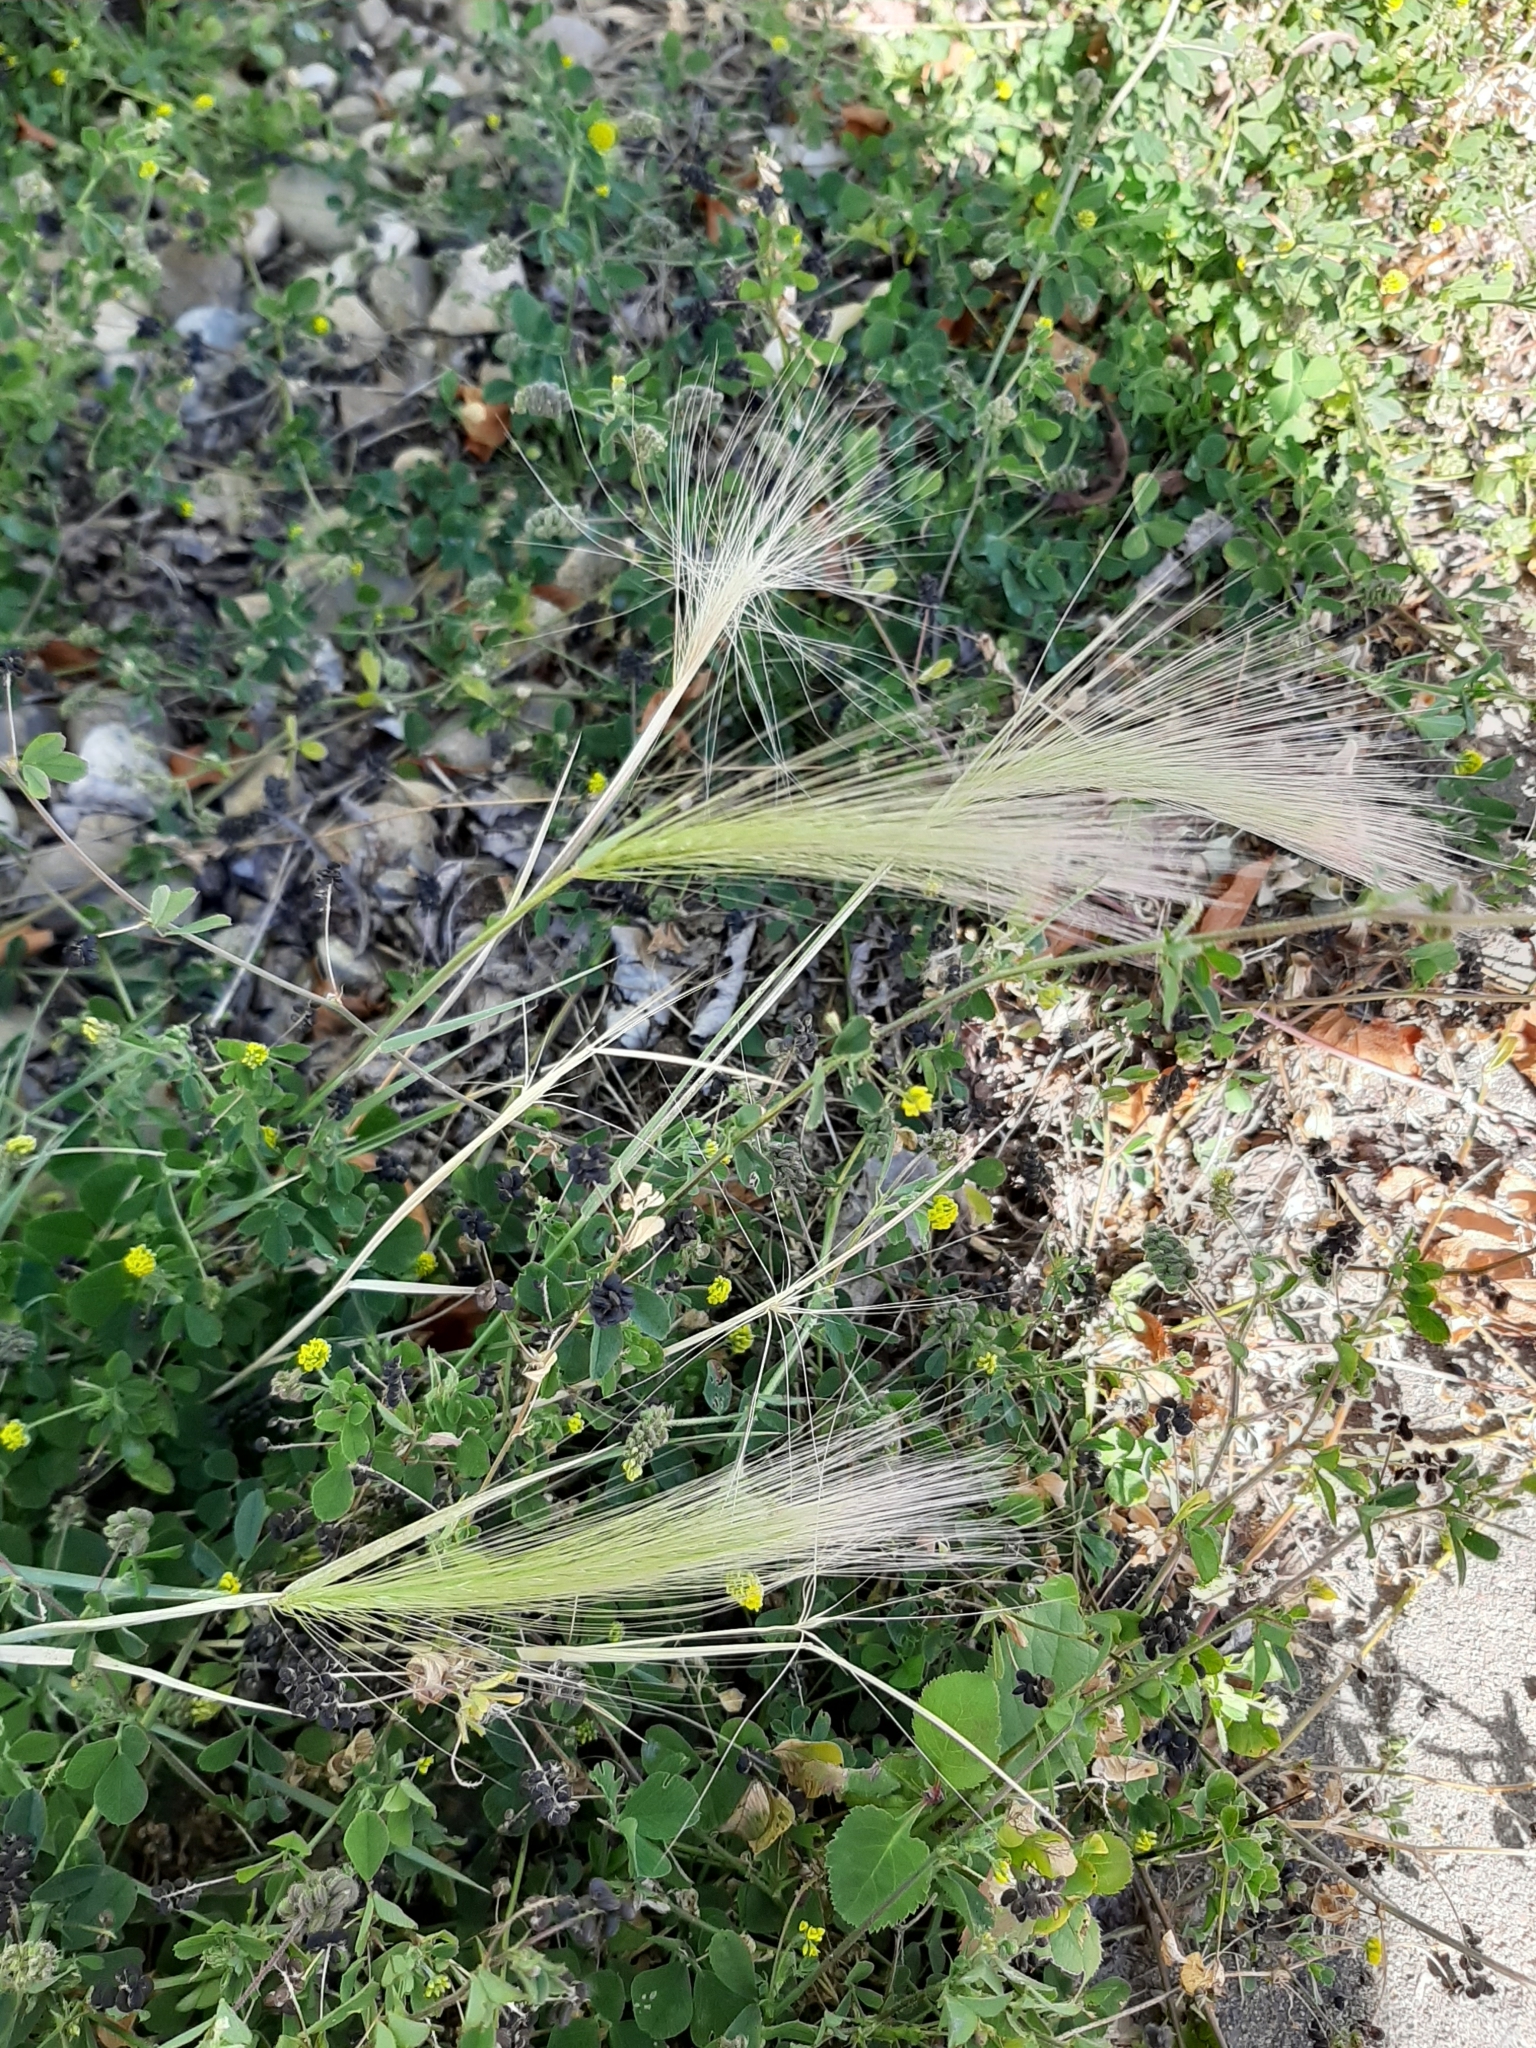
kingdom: Plantae
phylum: Tracheophyta
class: Liliopsida
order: Poales
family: Poaceae
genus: Hordeum
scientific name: Hordeum jubatum
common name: Foxtail barley
